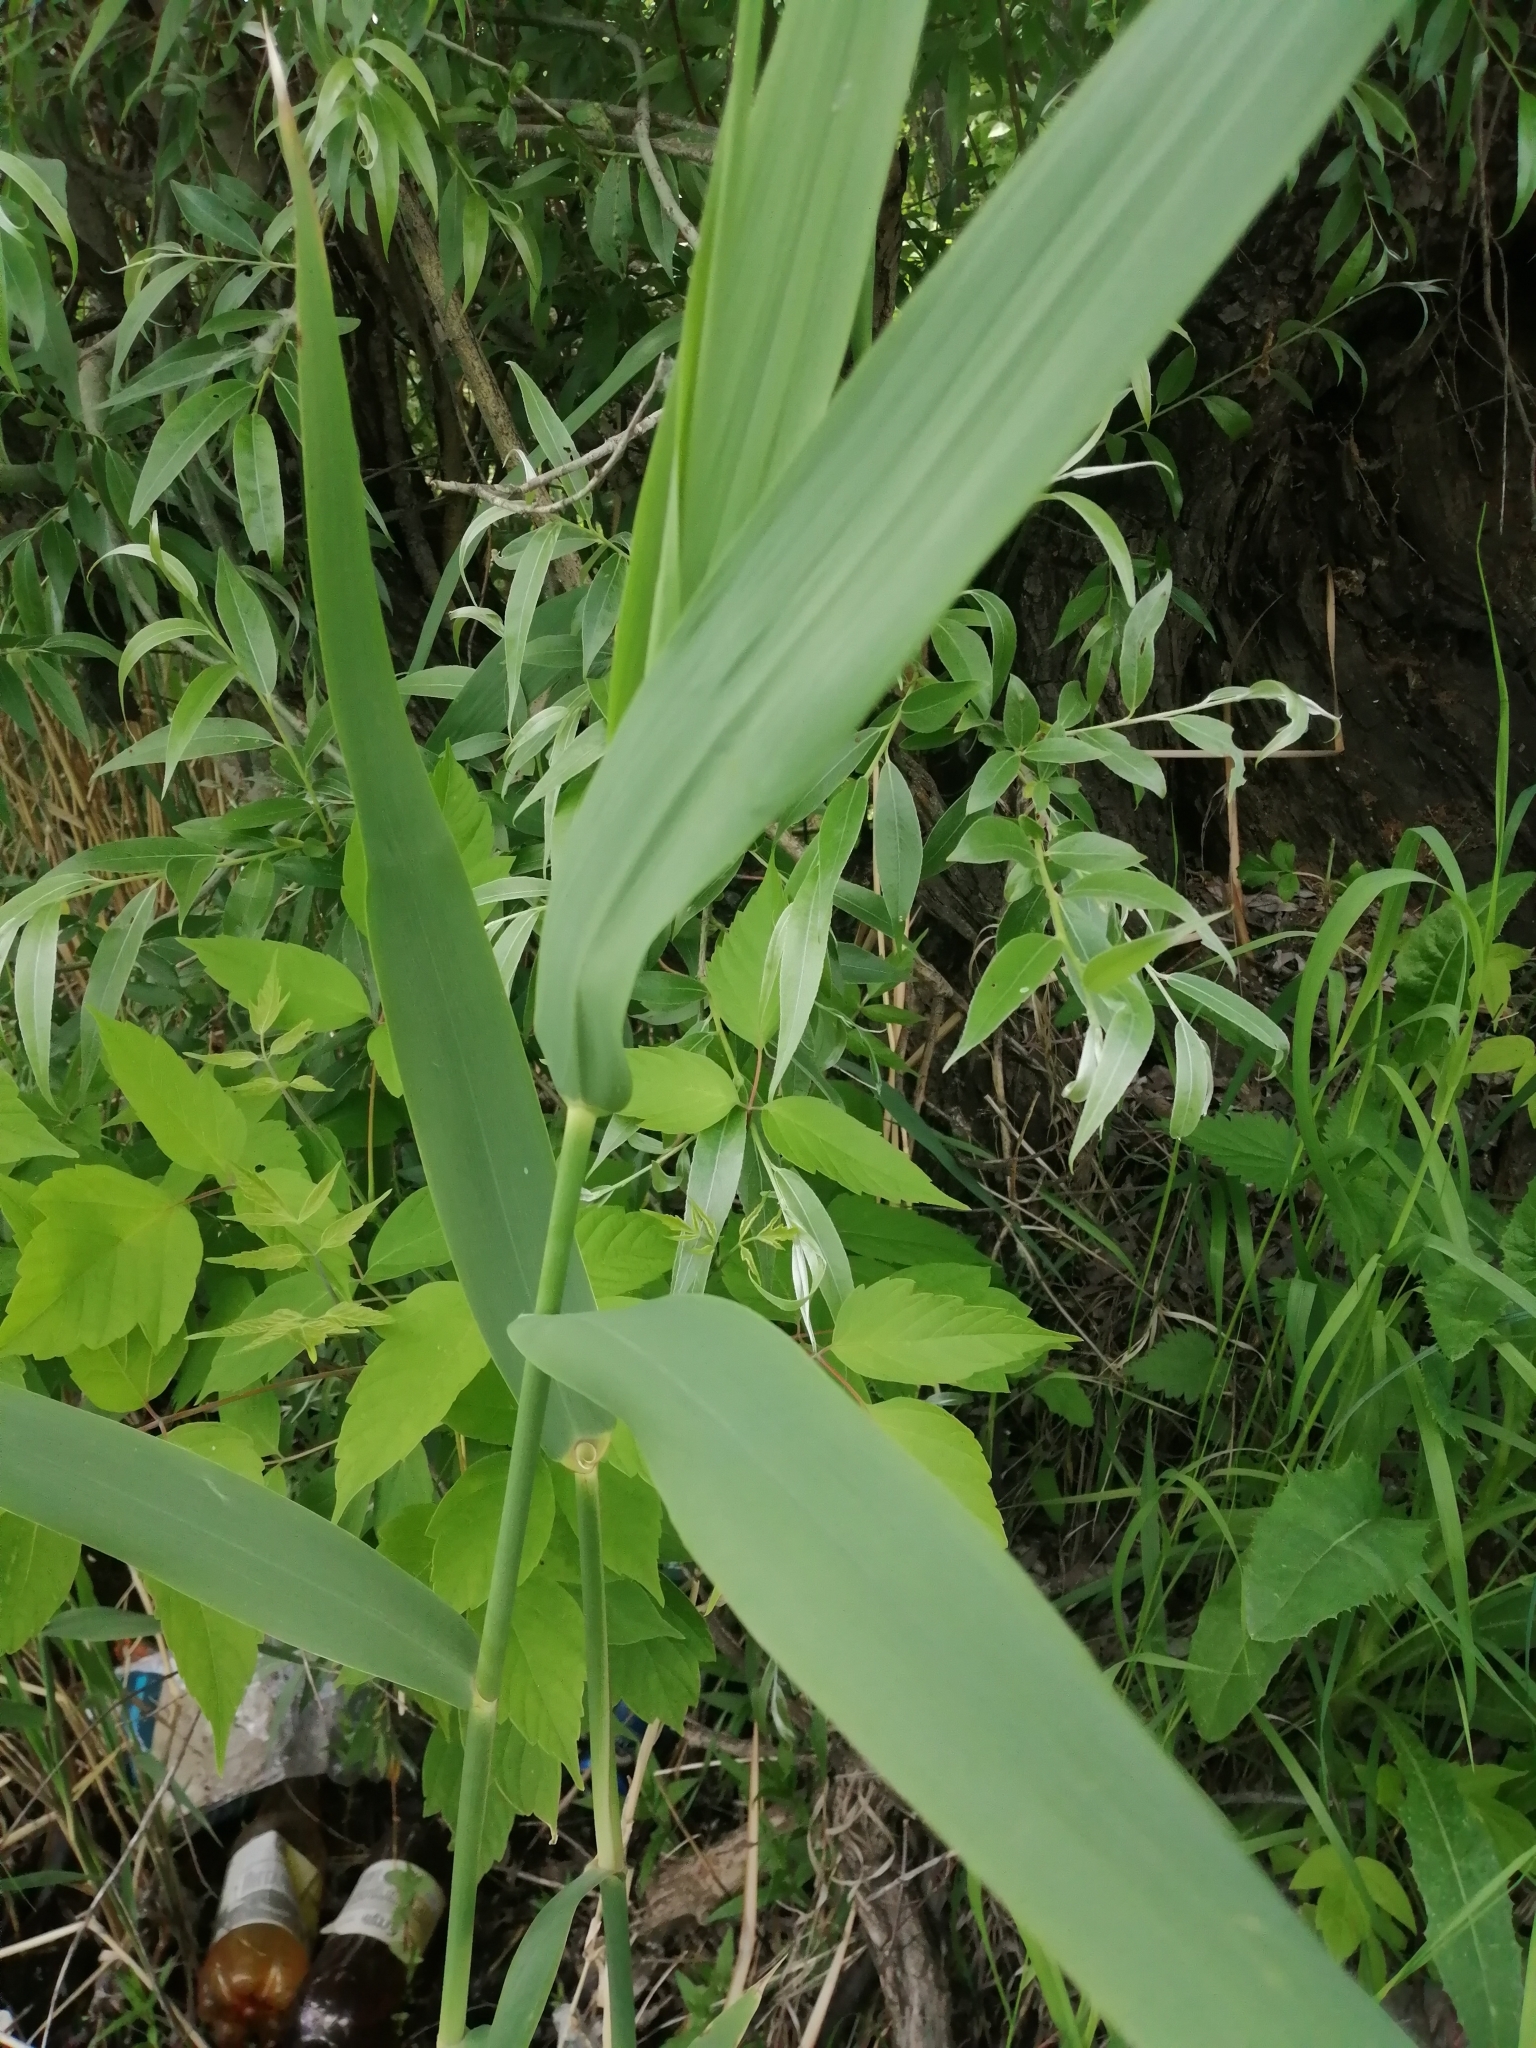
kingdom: Plantae
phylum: Tracheophyta
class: Liliopsida
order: Poales
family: Poaceae
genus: Phragmites
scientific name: Phragmites australis
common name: Common reed
